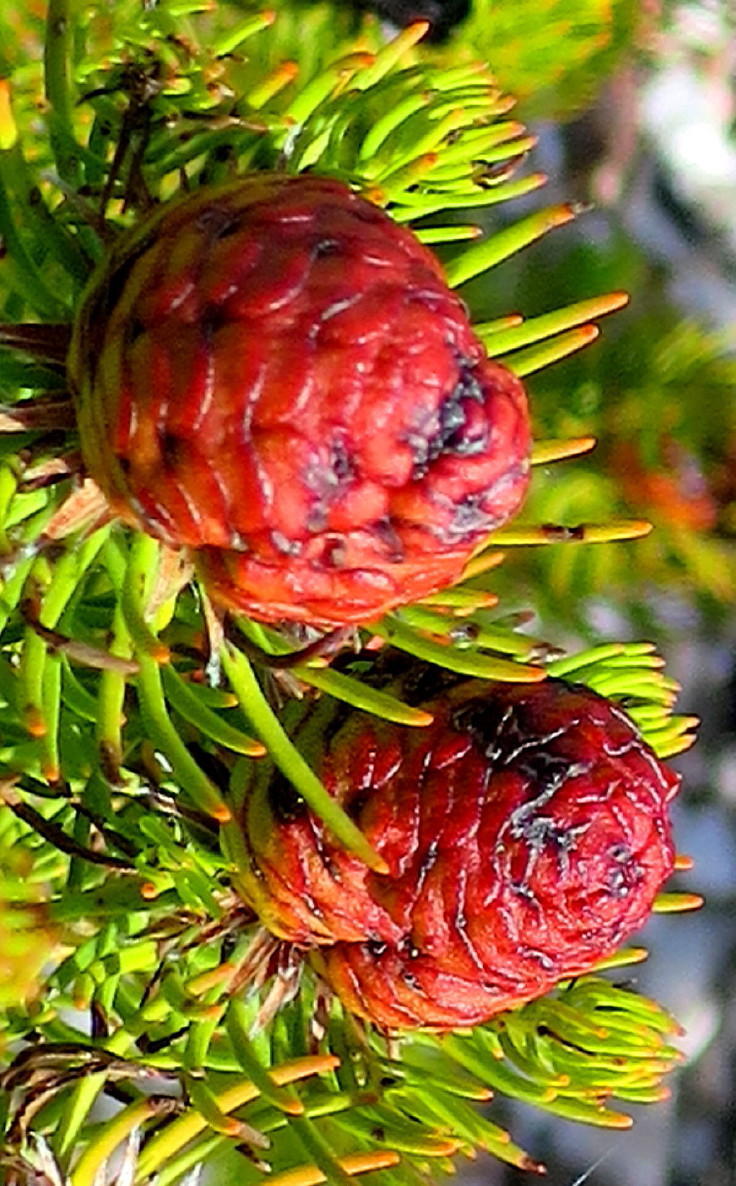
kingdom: Plantae
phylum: Tracheophyta
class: Magnoliopsida
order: Proteales
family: Proteaceae
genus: Leucadendron
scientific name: Leucadendron teretifolium
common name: Needle-leaf conebush
